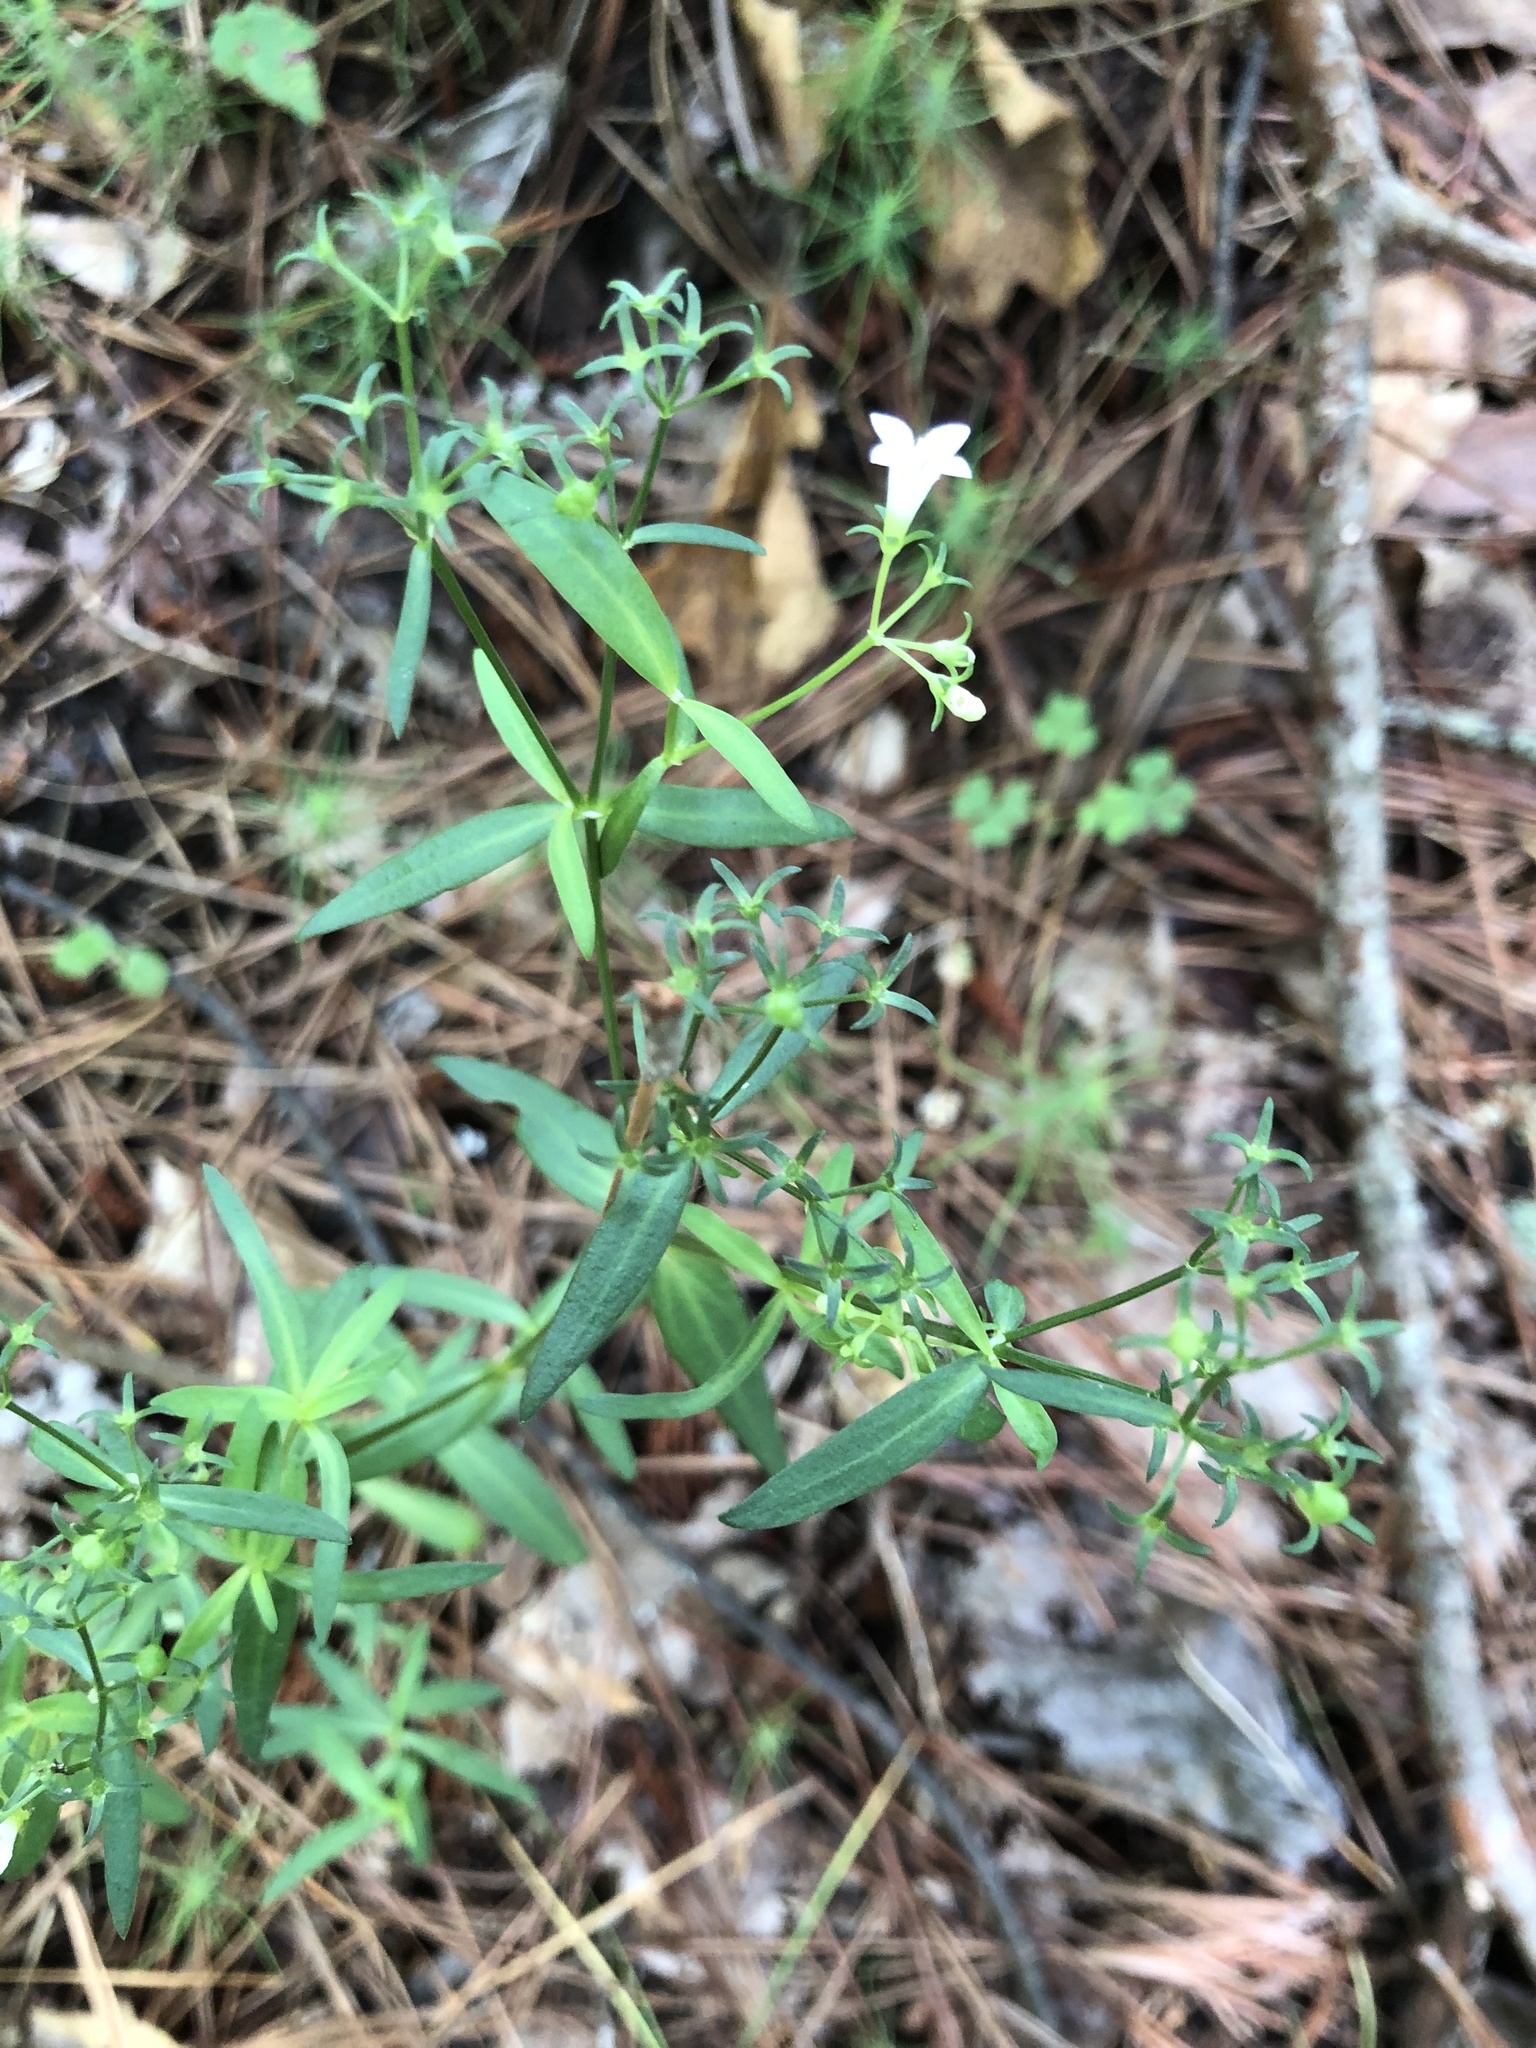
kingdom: Plantae
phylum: Tracheophyta
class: Magnoliopsida
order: Gentianales
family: Rubiaceae
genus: Houstonia
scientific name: Houstonia purpurea
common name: Summer bluet
